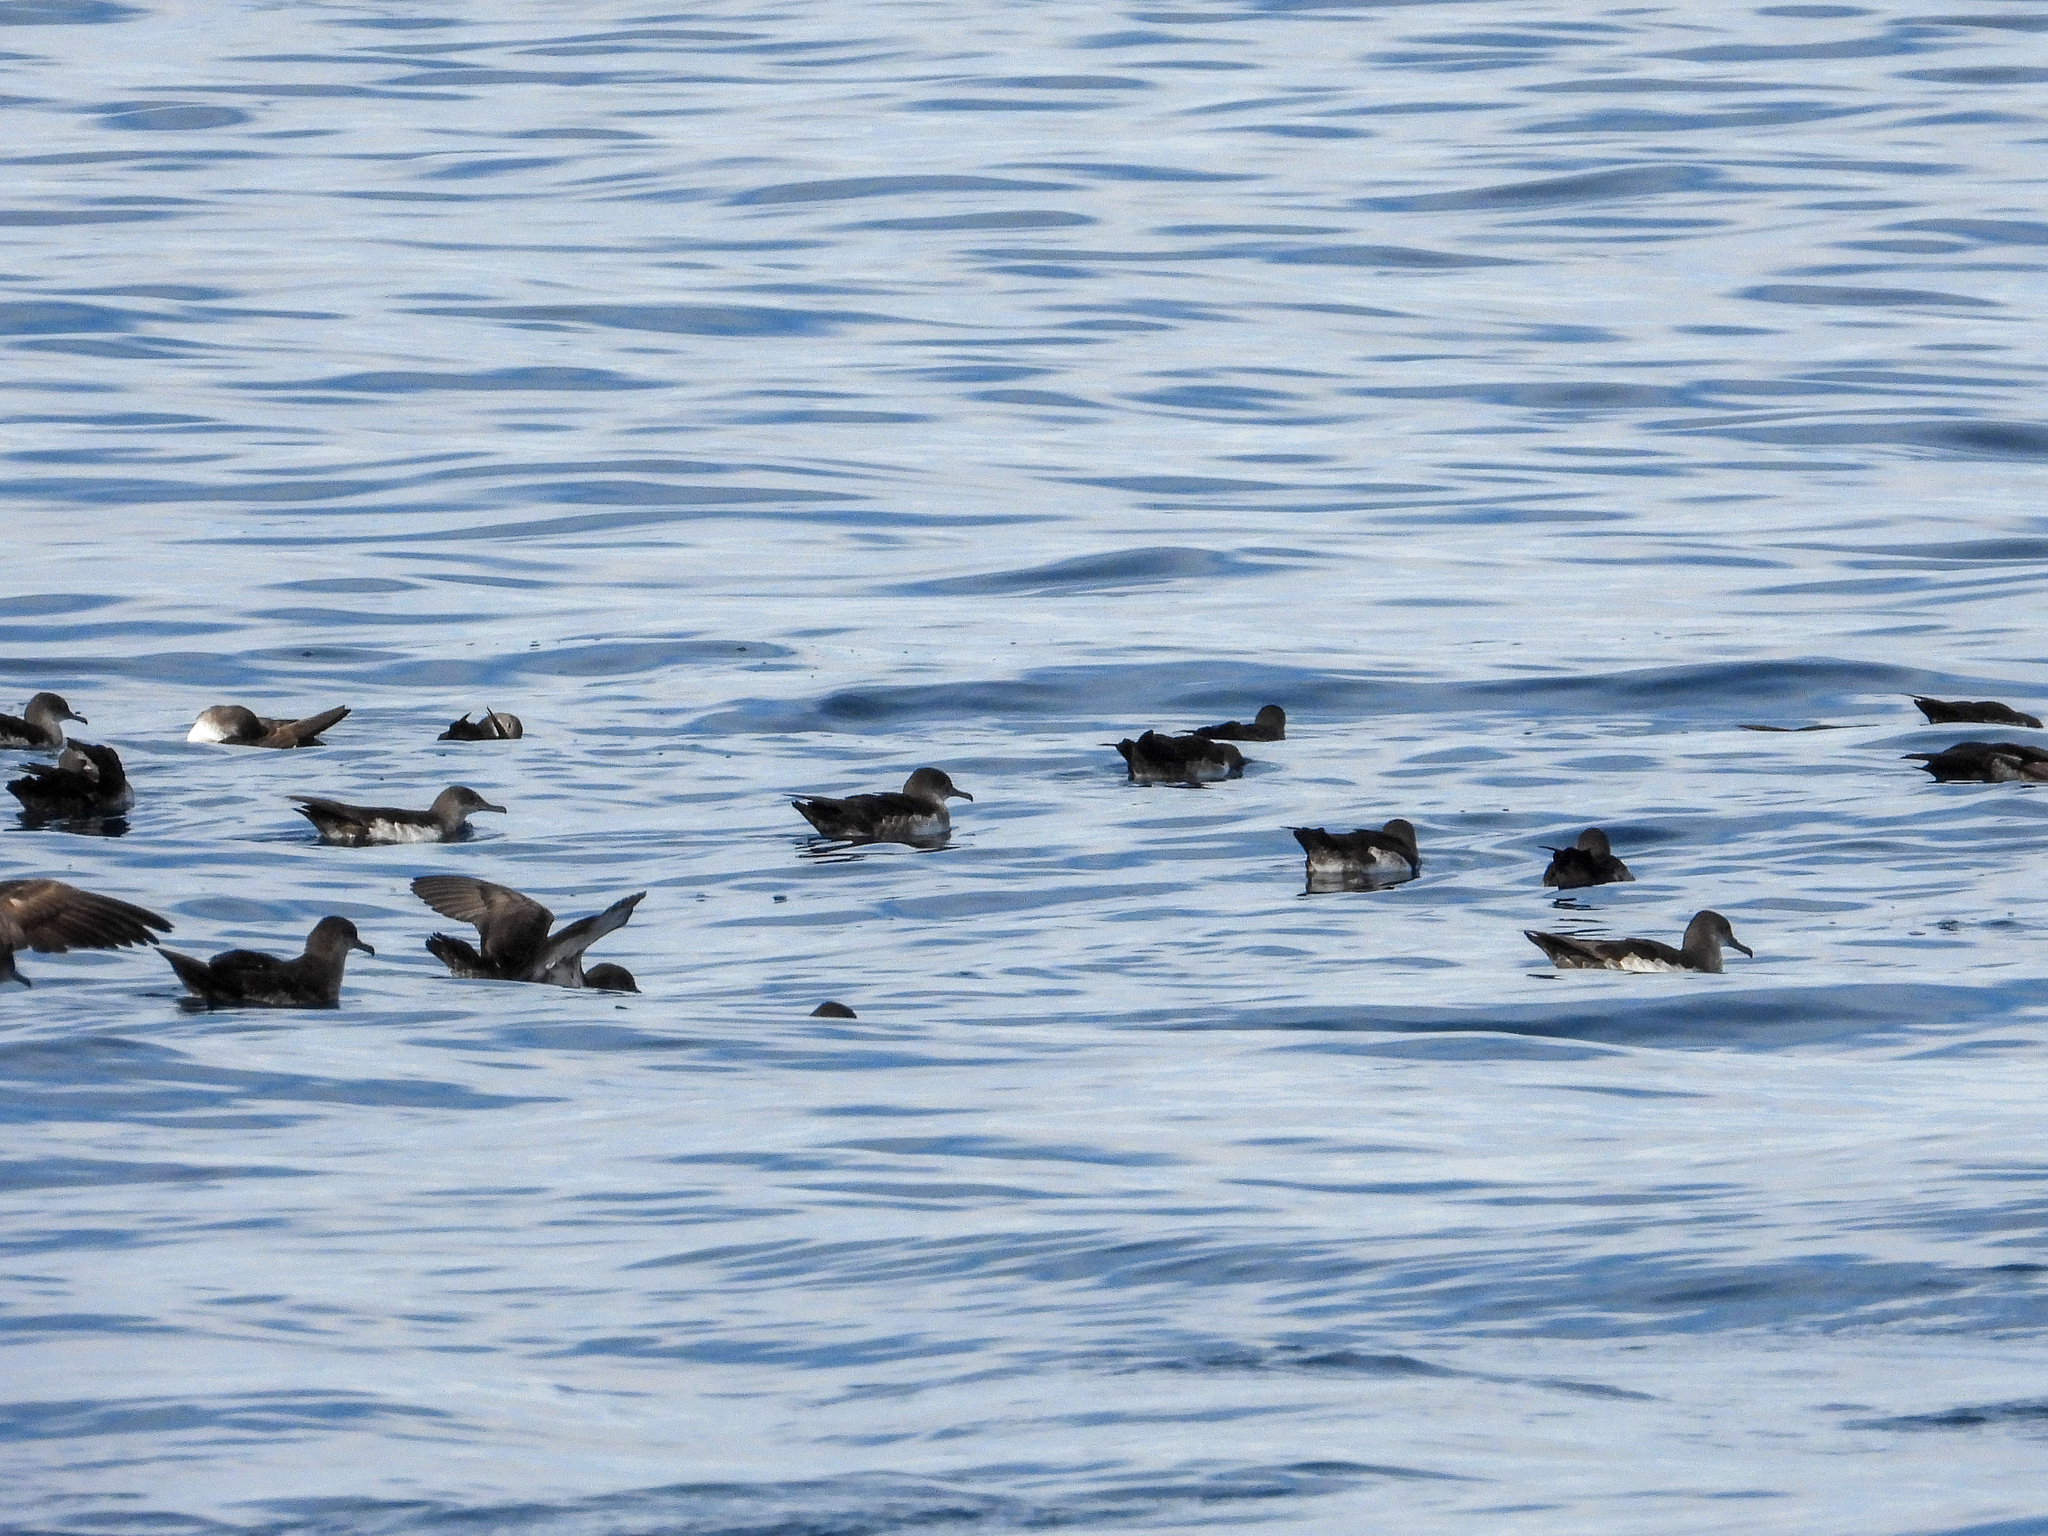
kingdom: Animalia
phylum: Chordata
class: Aves
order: Procellariiformes
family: Procellariidae
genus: Puffinus
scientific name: Puffinus opisthomelas
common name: Black-vented shearwater
